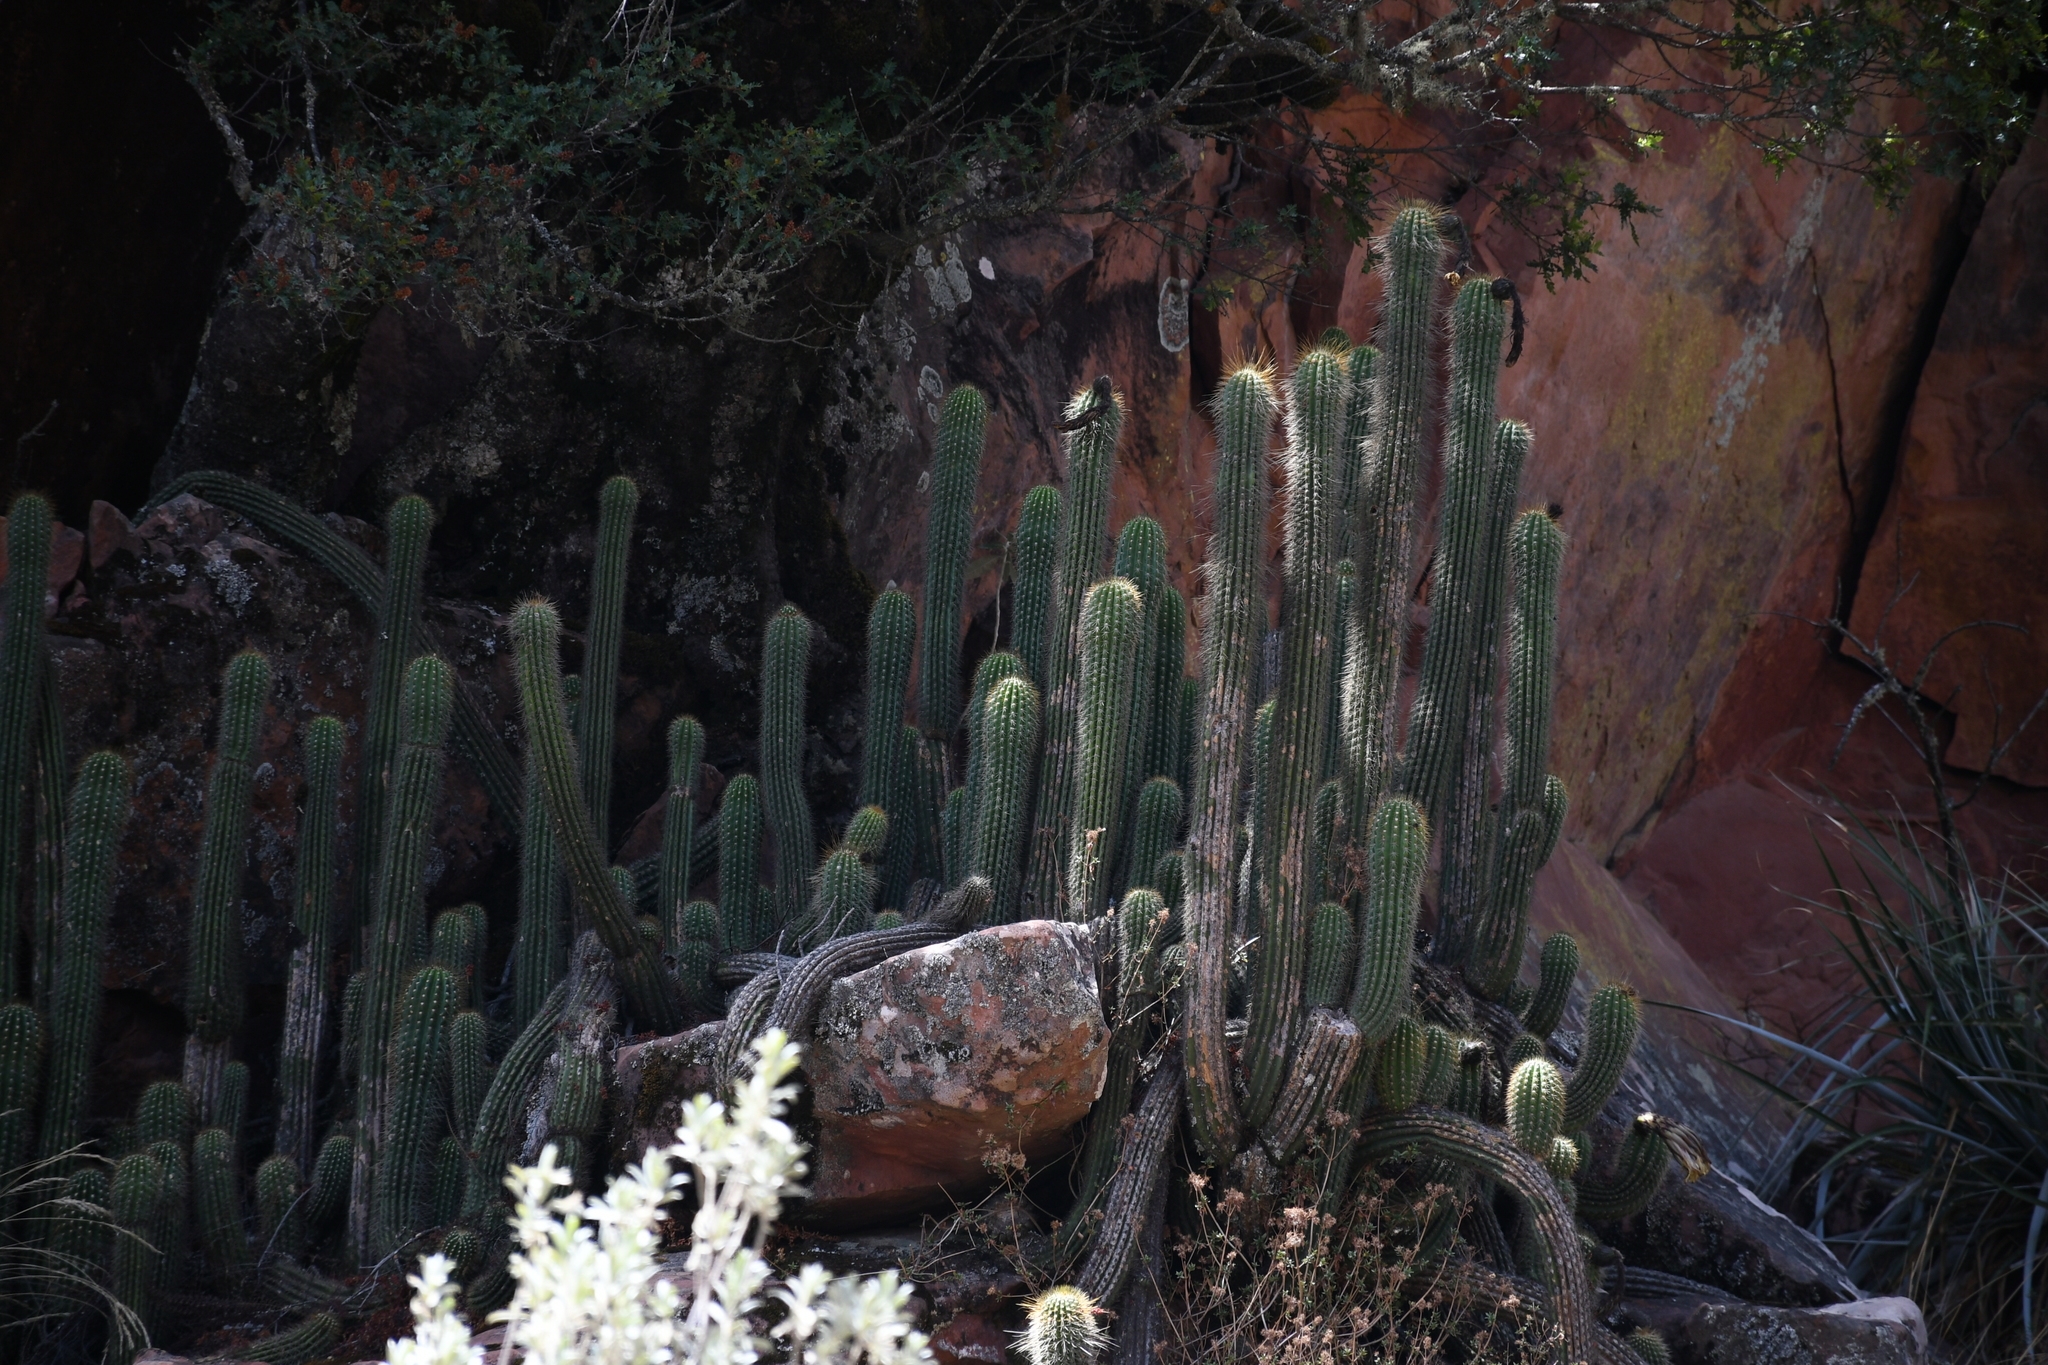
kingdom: Plantae
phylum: Tracheophyta
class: Magnoliopsida
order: Caryophyllales
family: Cactaceae
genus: Soehrensia
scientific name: Soehrensia volliana
